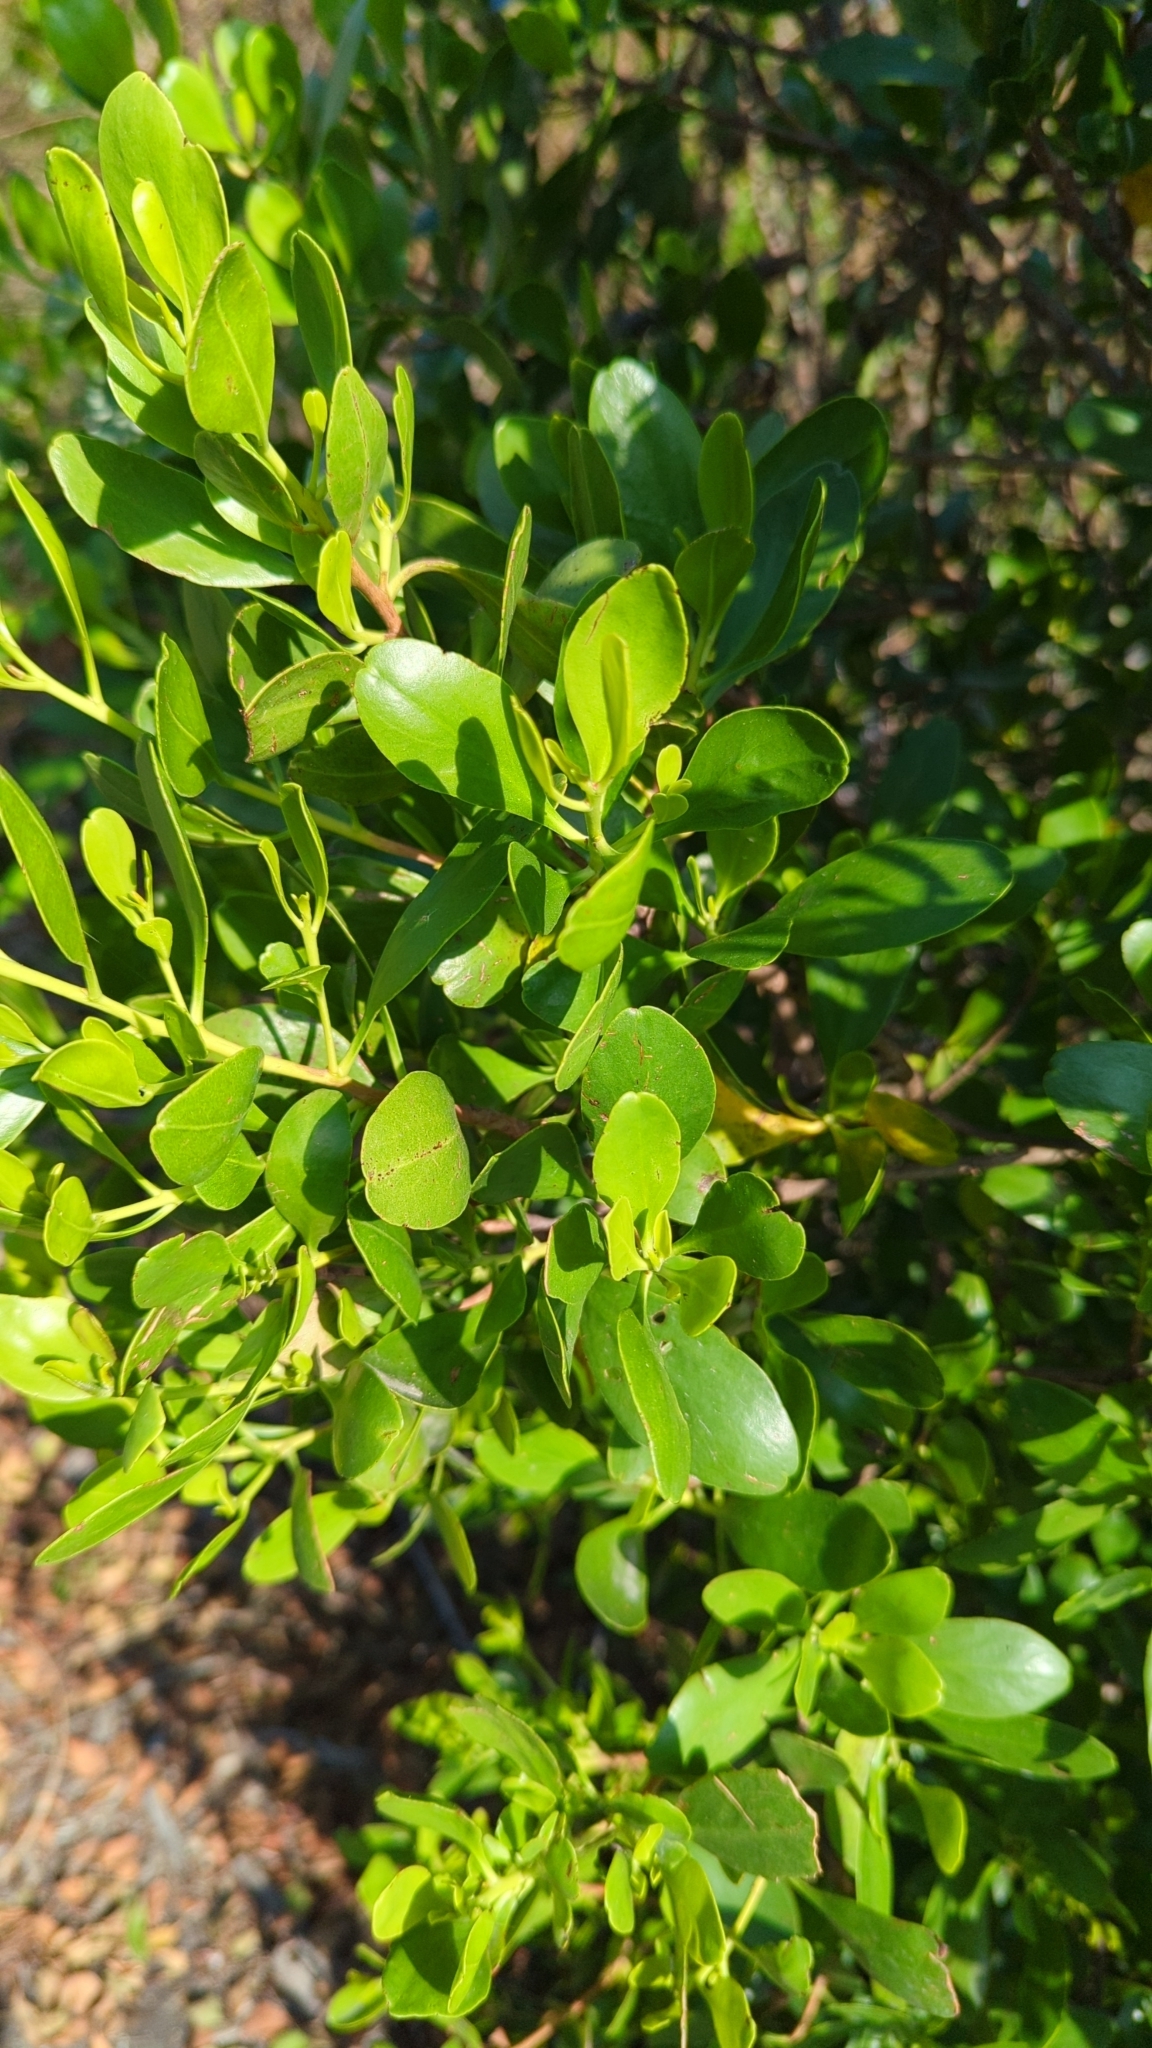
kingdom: Plantae
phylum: Tracheophyta
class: Magnoliopsida
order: Myrtales
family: Combretaceae
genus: Lumnitzera
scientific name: Lumnitzera racemosa
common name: White-flowered black mangrove
